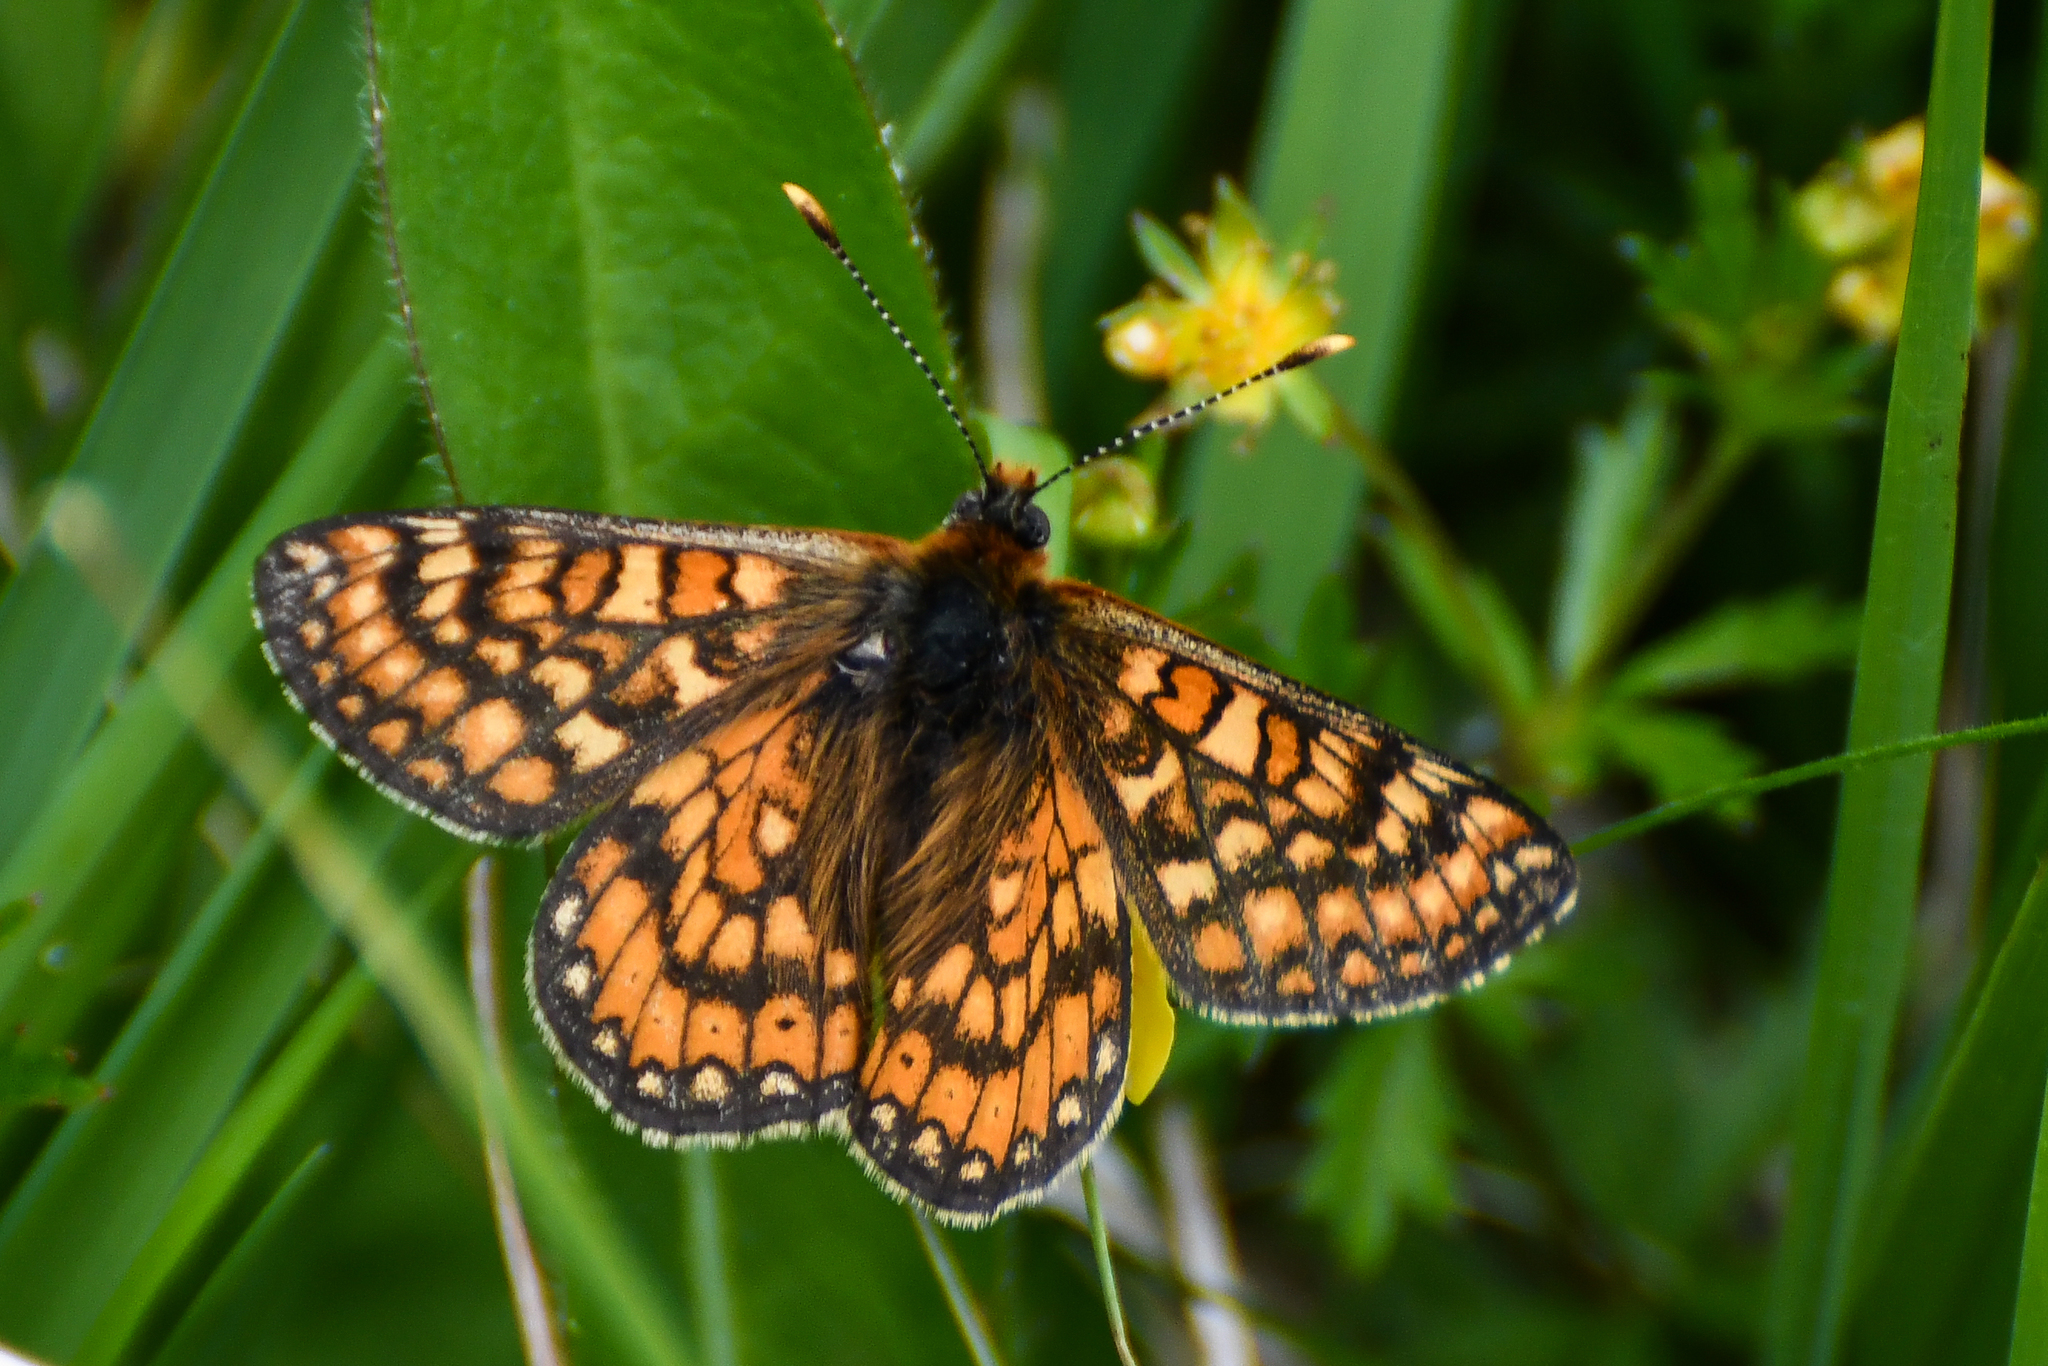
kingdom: Animalia
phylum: Arthropoda
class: Insecta
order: Lepidoptera
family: Nymphalidae
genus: Euphydryas
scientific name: Euphydryas aurinia
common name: Marsh fritillary
